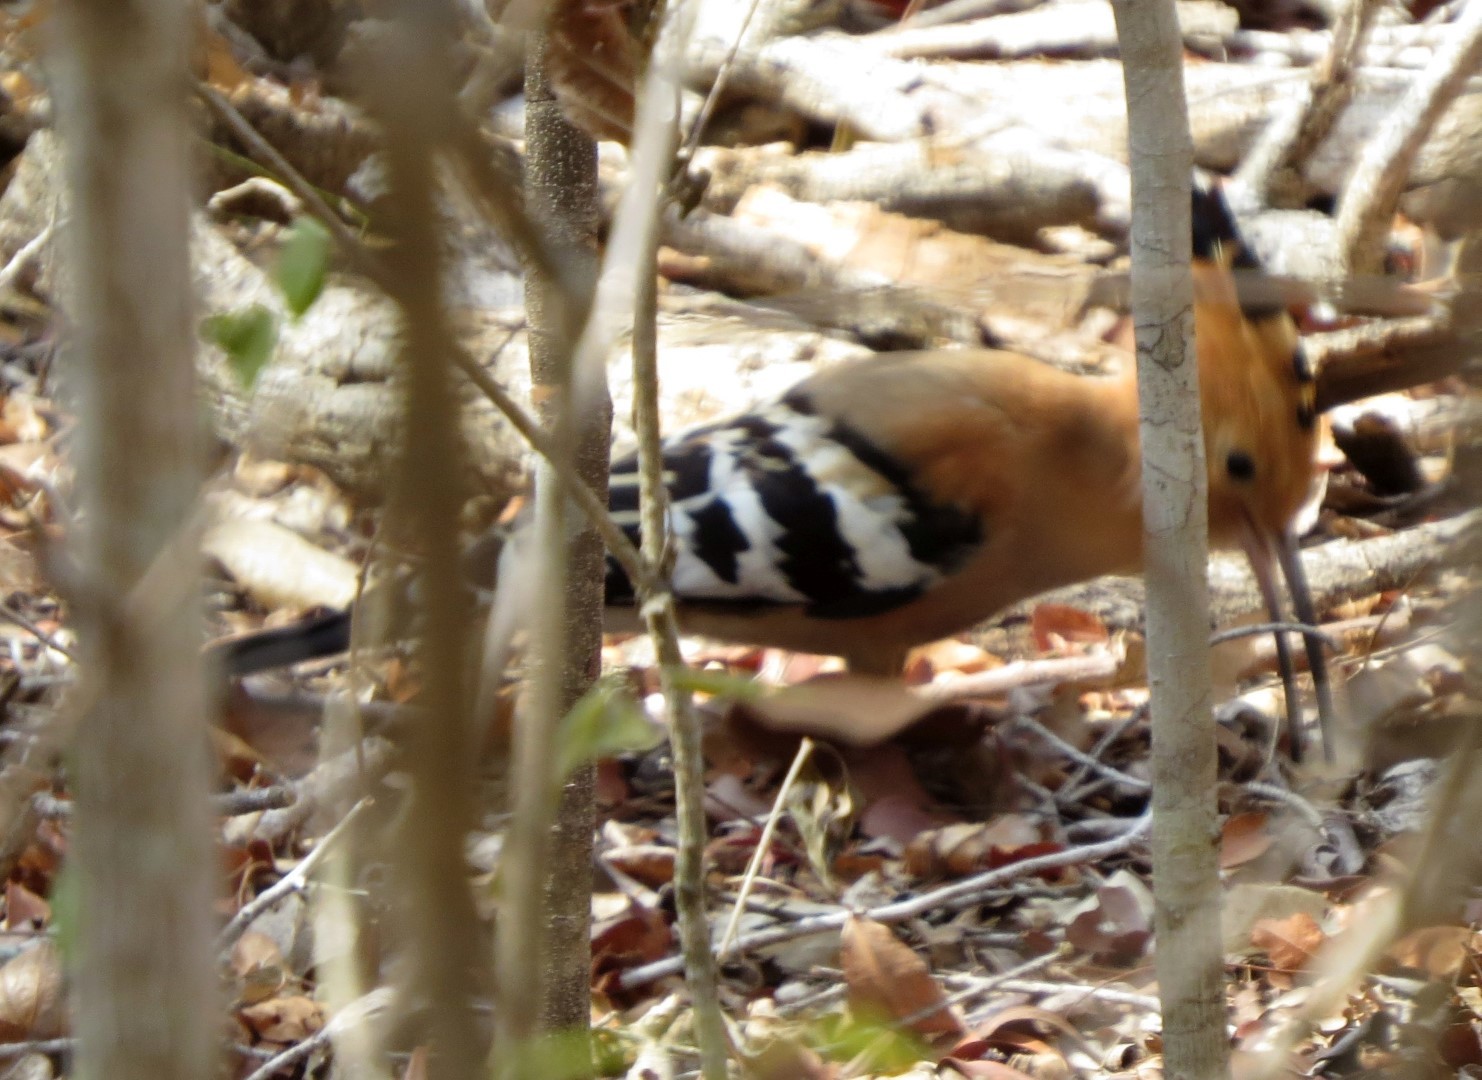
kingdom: Animalia
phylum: Chordata
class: Aves
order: Bucerotiformes
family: Upupidae
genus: Upupa
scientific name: Upupa marginata
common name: Madagascar hoopoe
